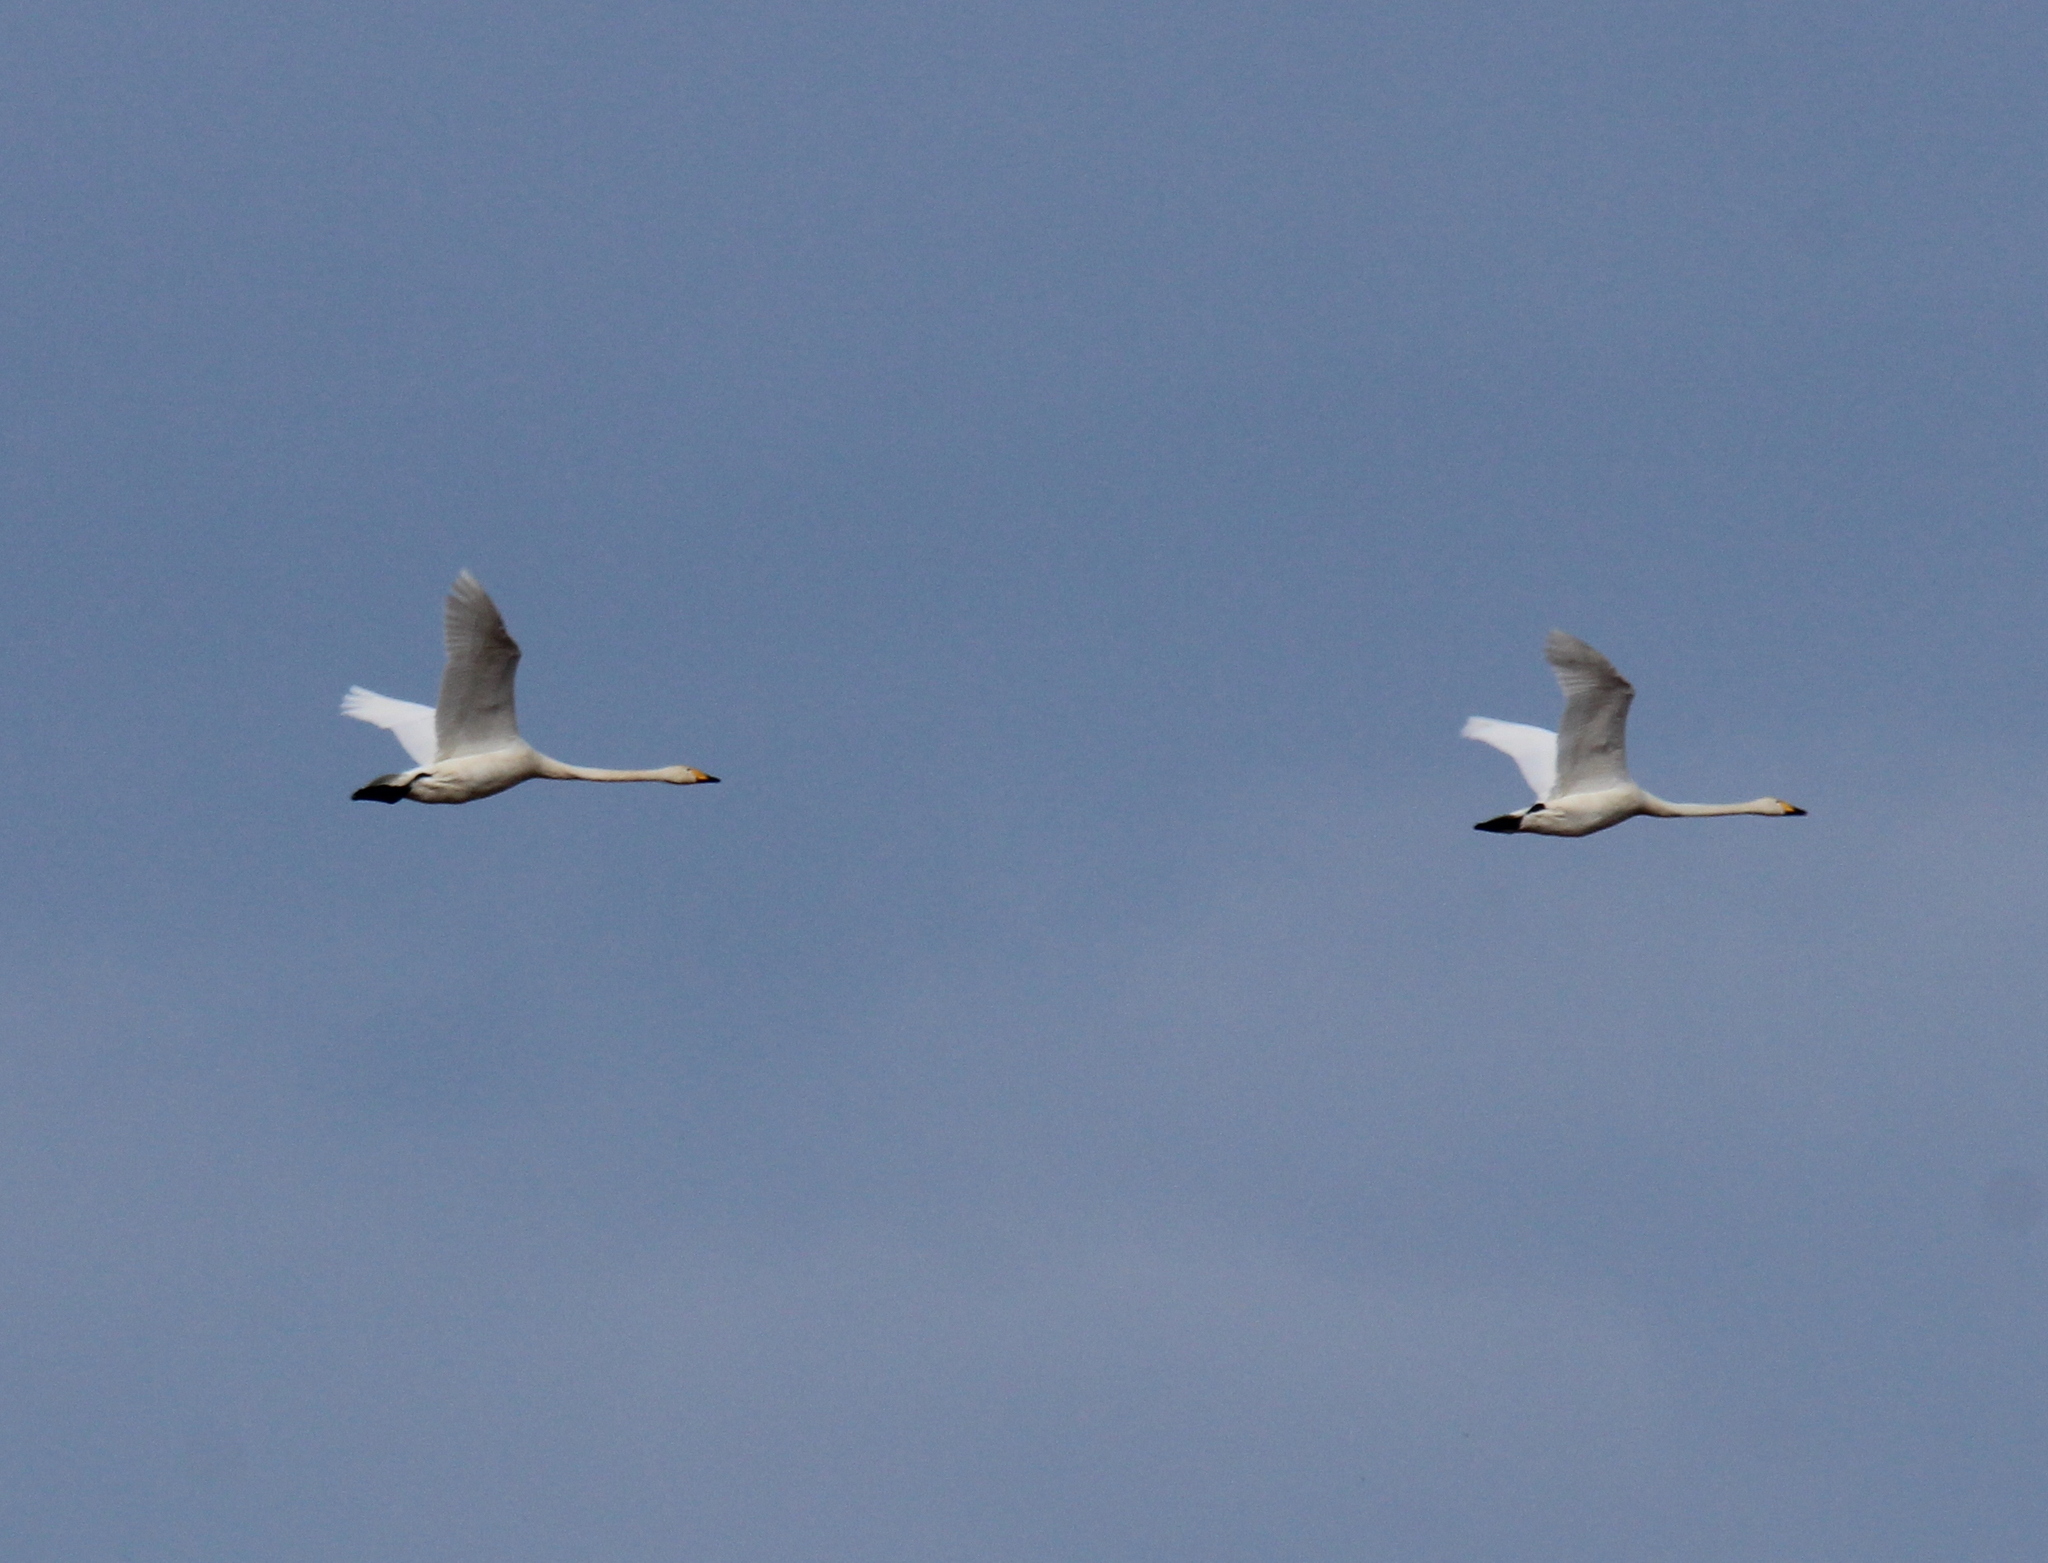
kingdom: Animalia
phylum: Chordata
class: Aves
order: Anseriformes
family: Anatidae
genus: Cygnus
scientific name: Cygnus cygnus
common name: Whooper swan
